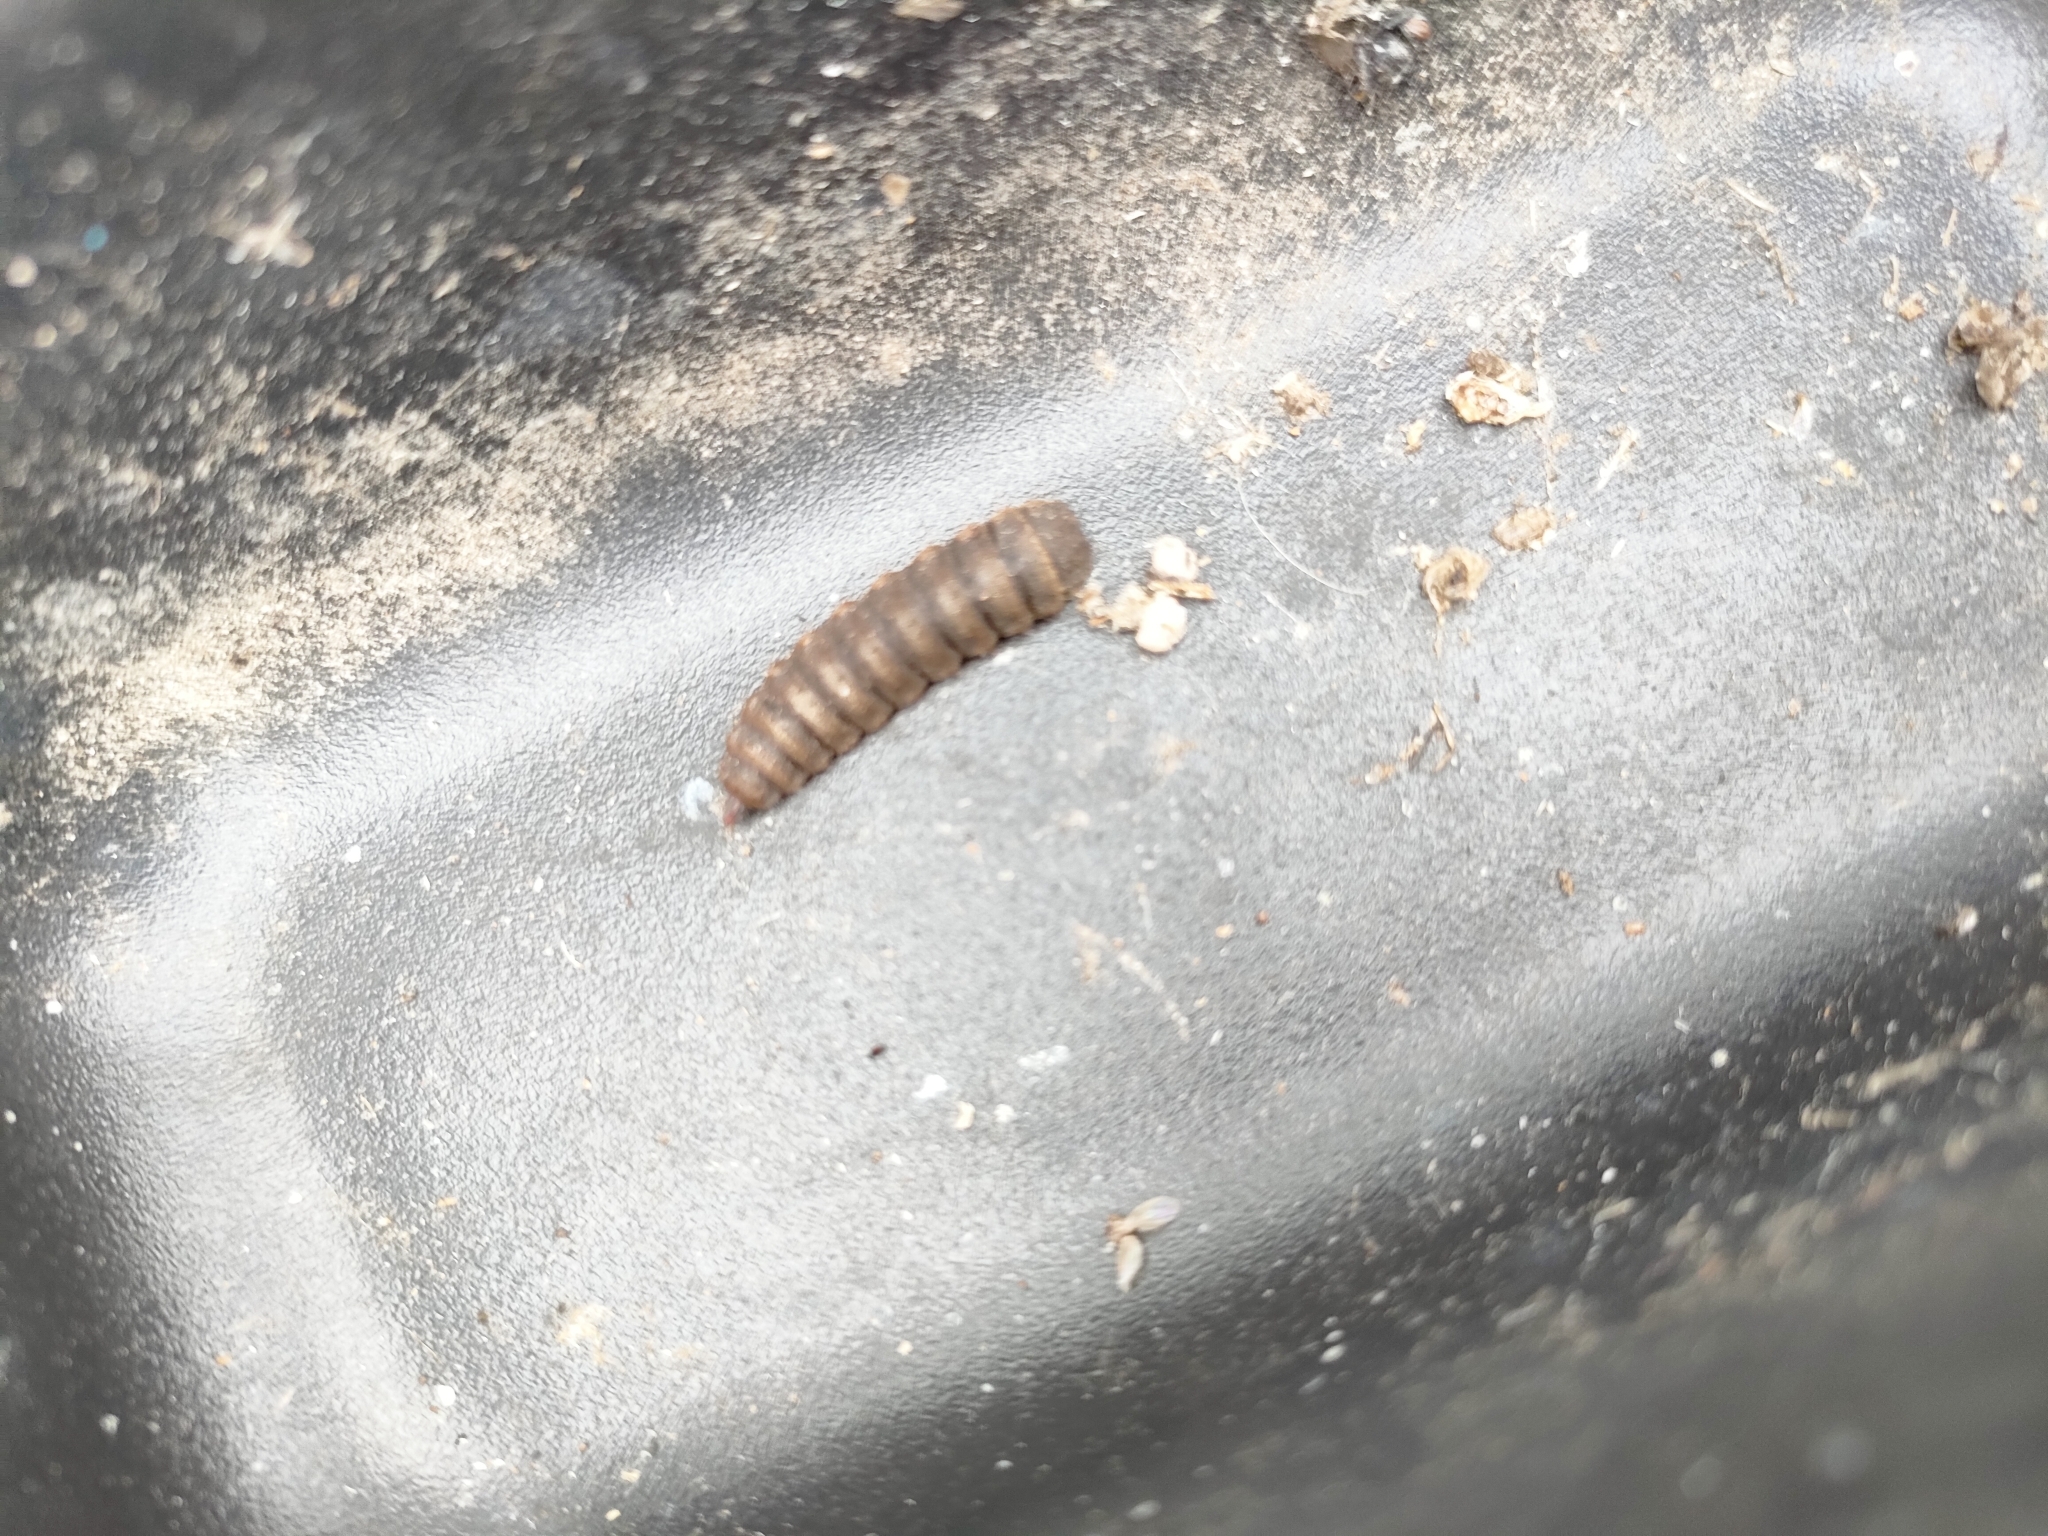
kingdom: Animalia
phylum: Arthropoda
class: Insecta
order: Diptera
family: Stratiomyidae
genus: Hermetia
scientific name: Hermetia illucens
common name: Black soldier fly
